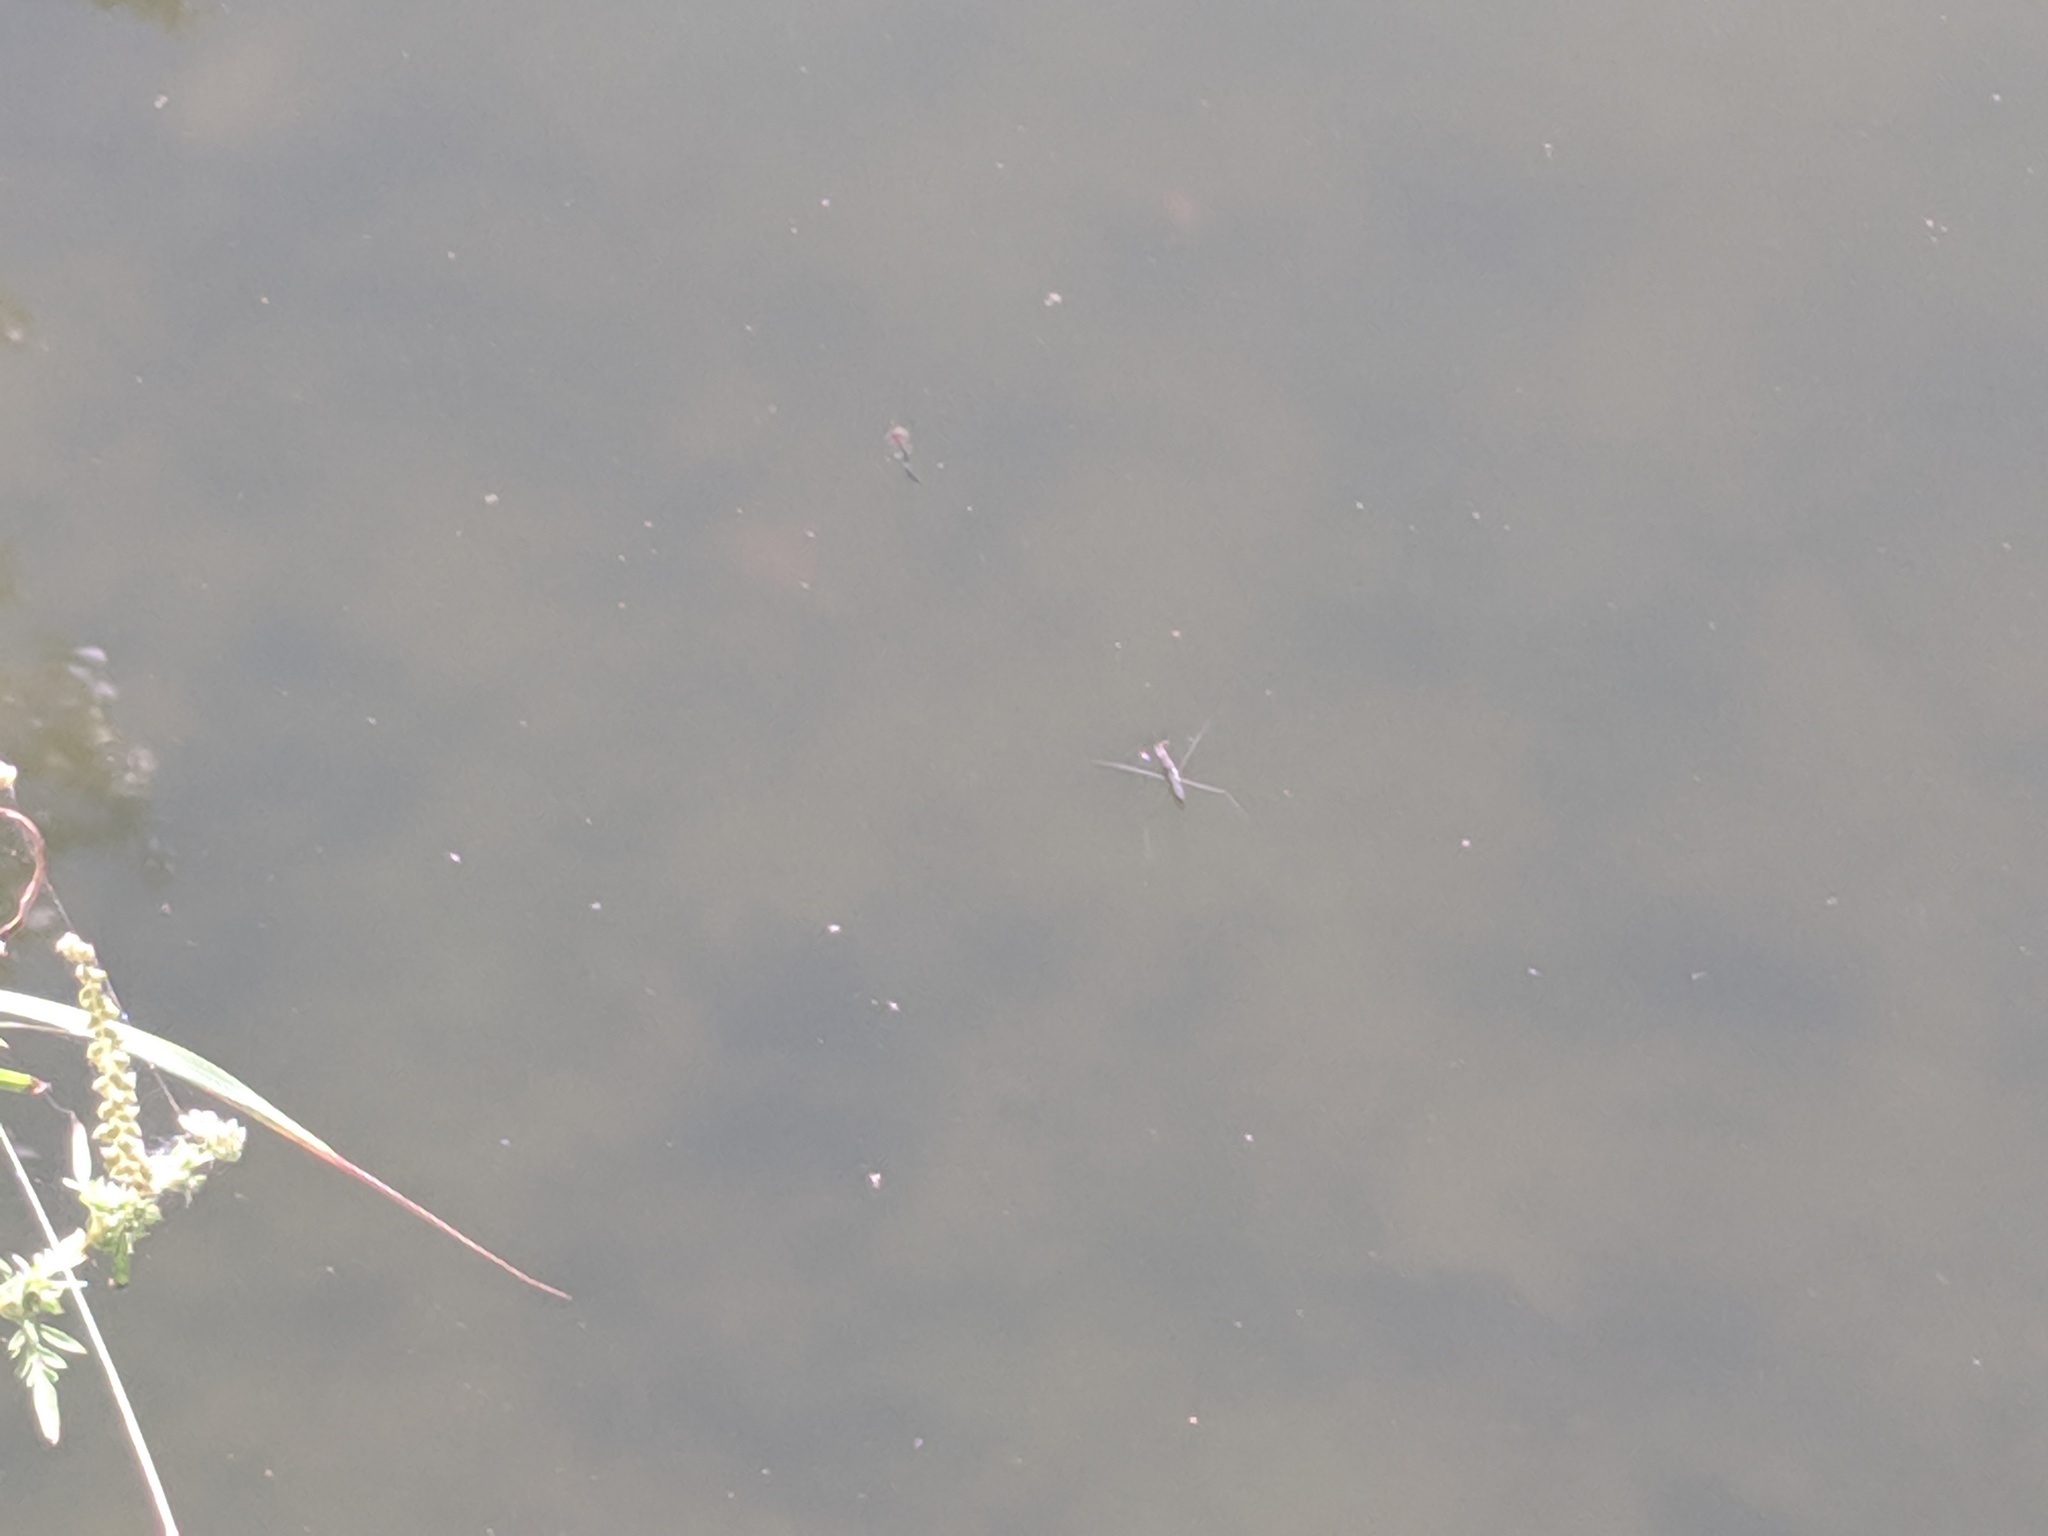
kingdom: Animalia
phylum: Arthropoda
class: Insecta
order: Hemiptera
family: Gerridae
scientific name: Gerridae
